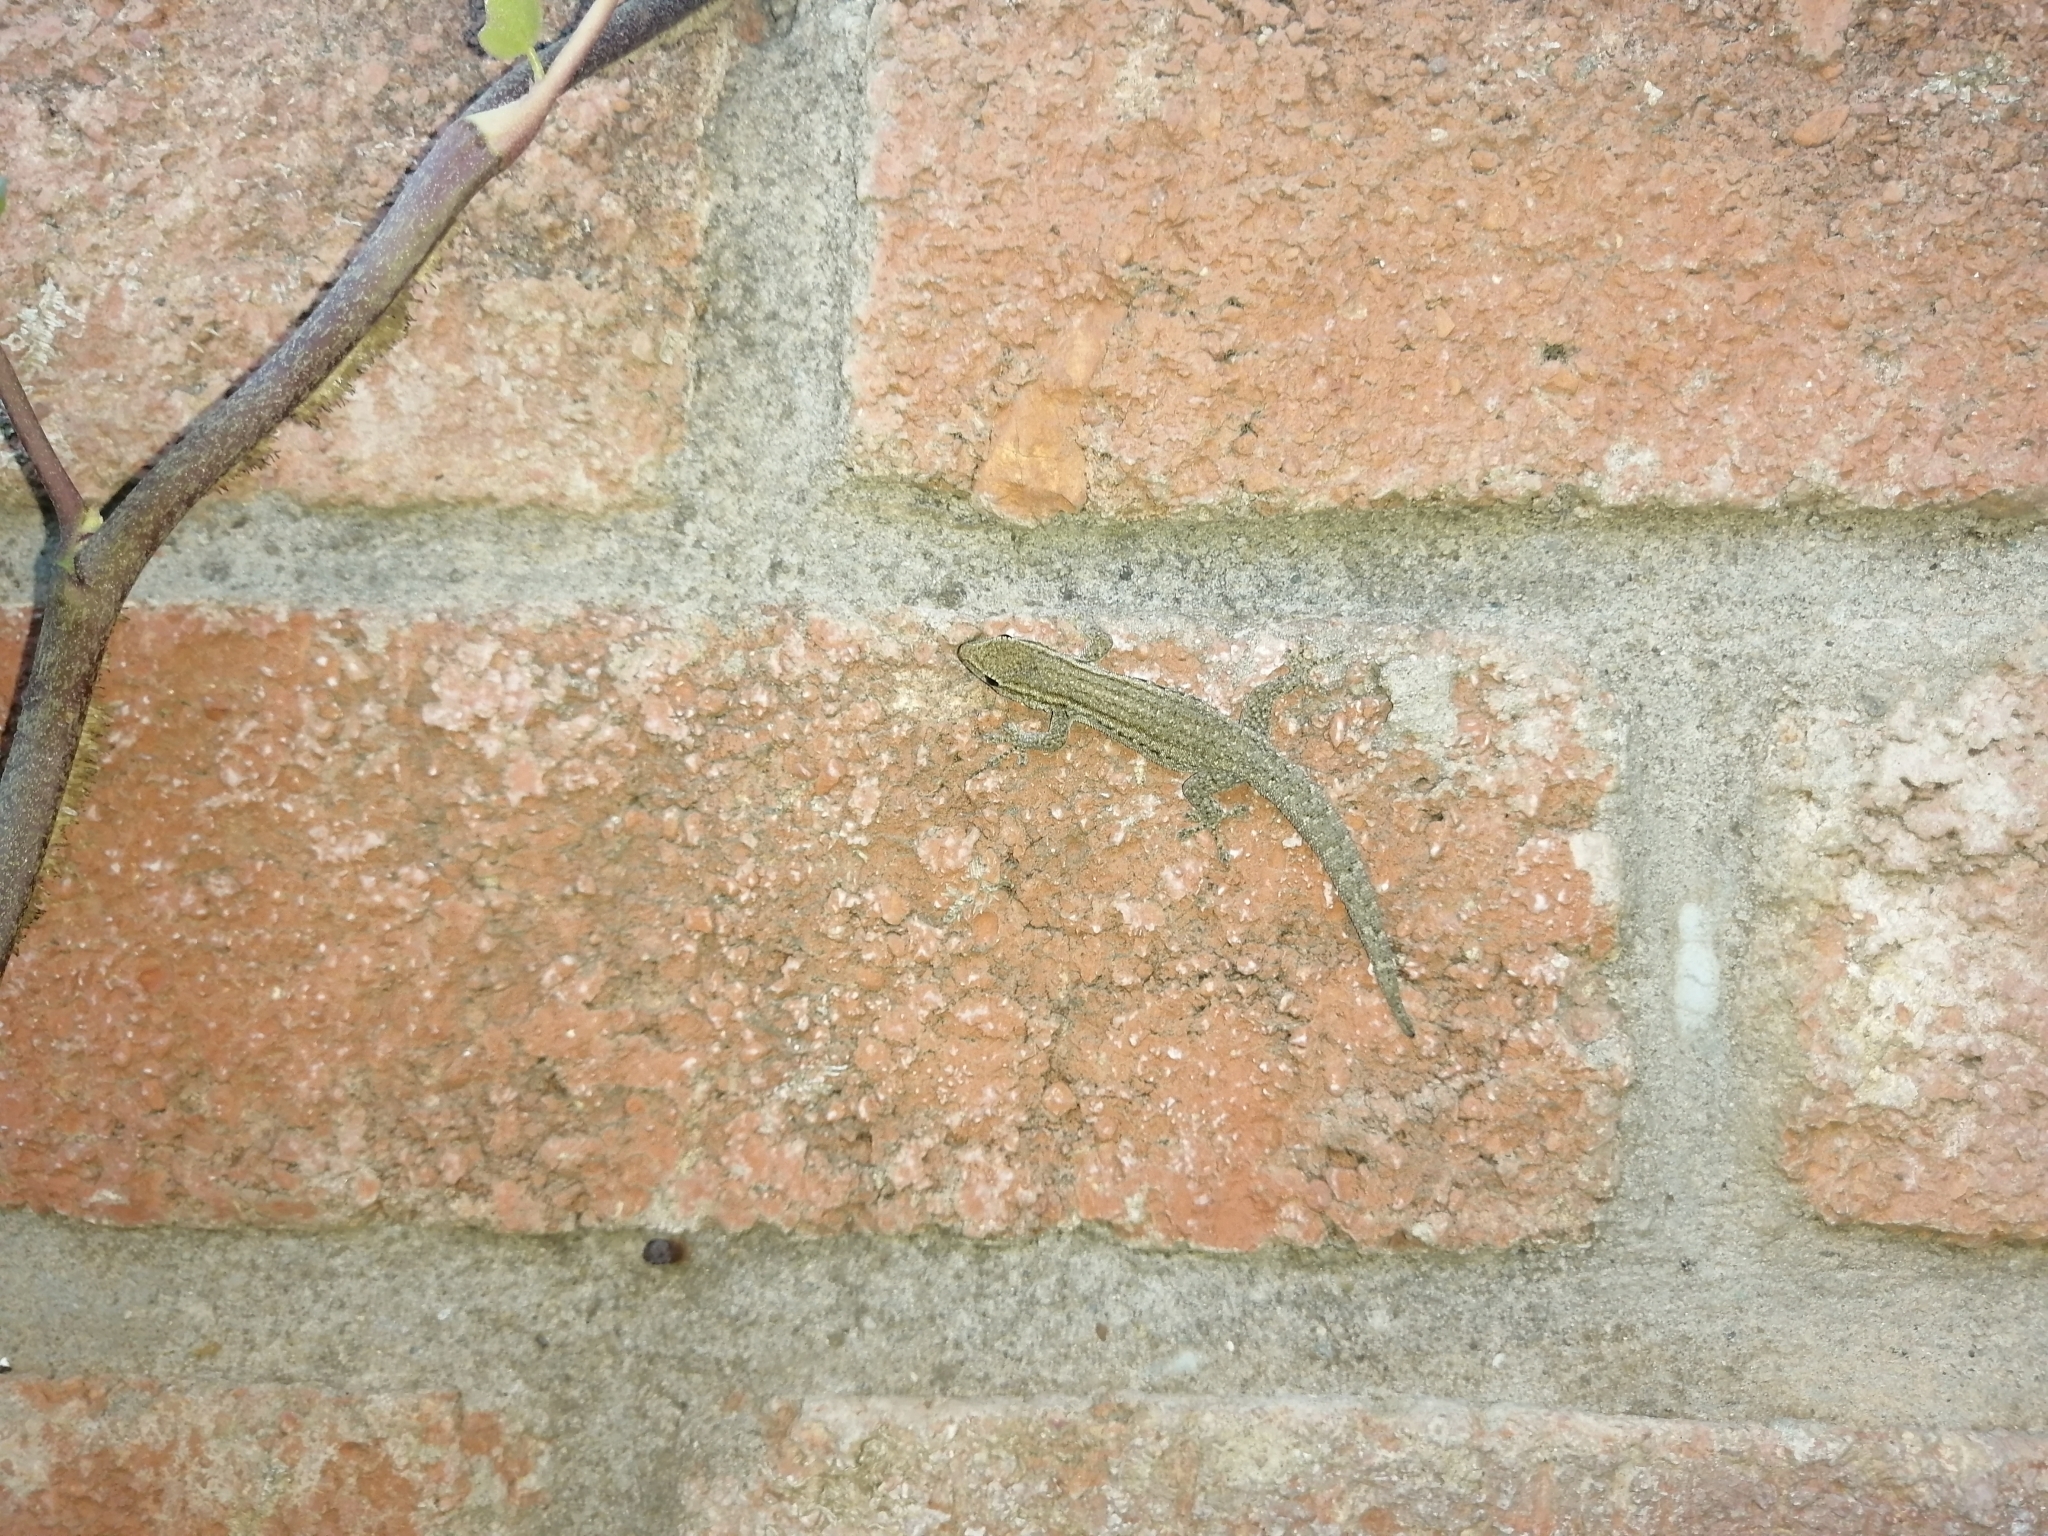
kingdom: Animalia
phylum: Chordata
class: Squamata
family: Gekkonidae
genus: Lygodactylus
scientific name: Lygodactylus capensis
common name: Cape dwarf gecko
